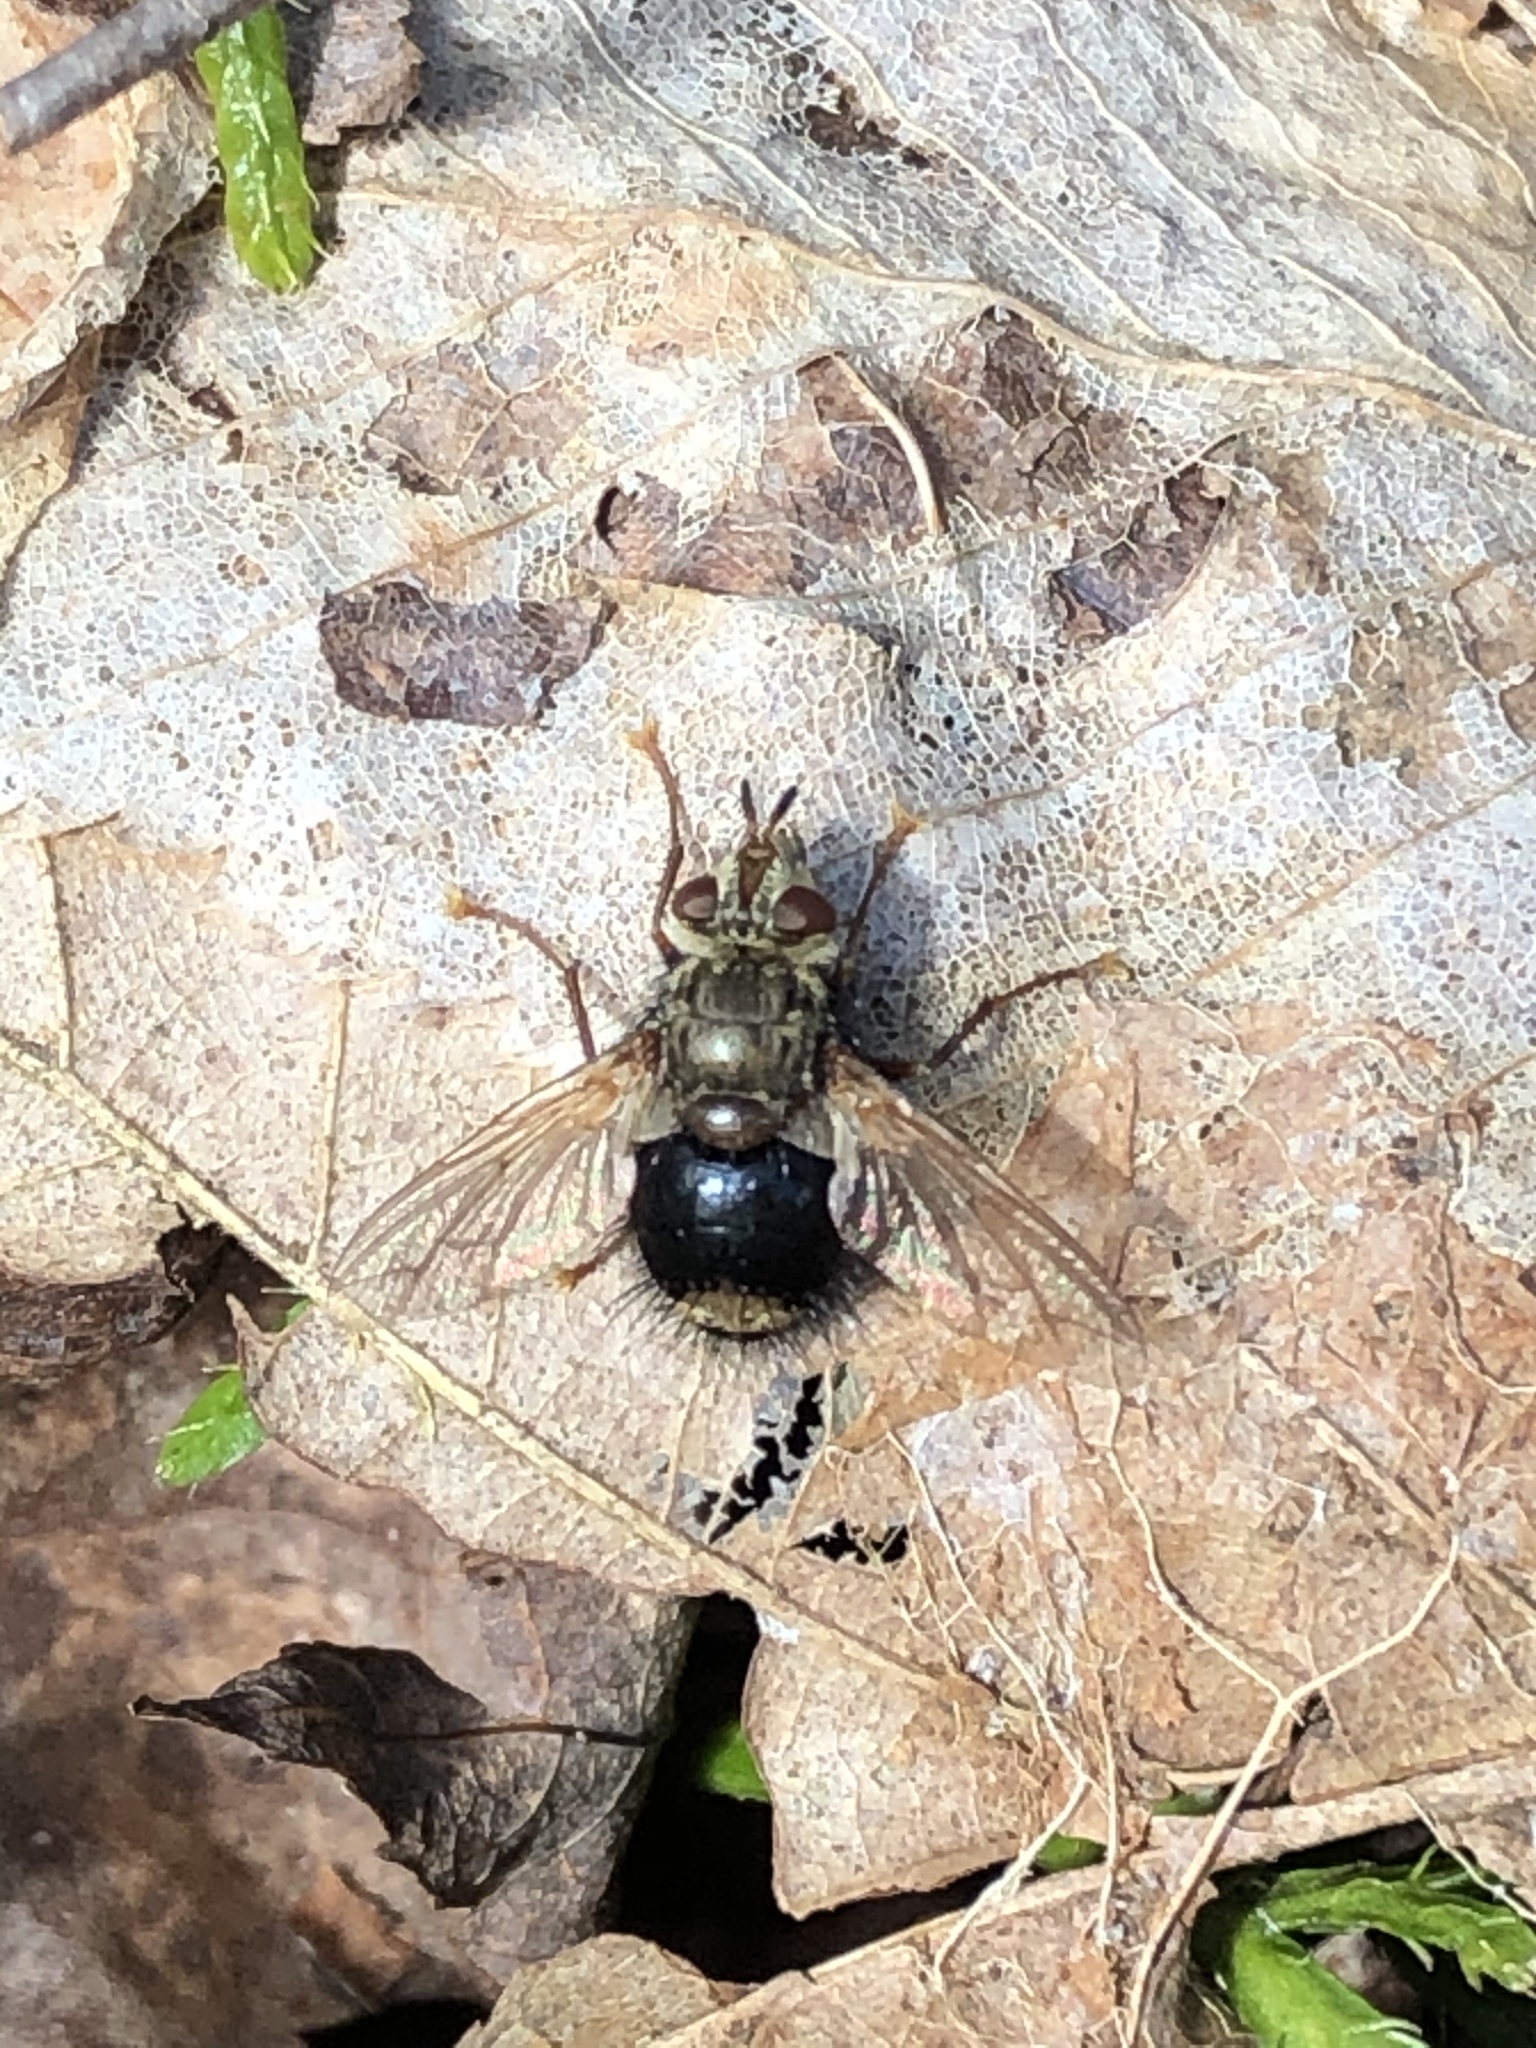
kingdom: Animalia
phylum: Arthropoda
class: Insecta
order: Diptera
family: Tachinidae
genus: Epalpus
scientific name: Epalpus signifer
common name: Early tachinid fly
